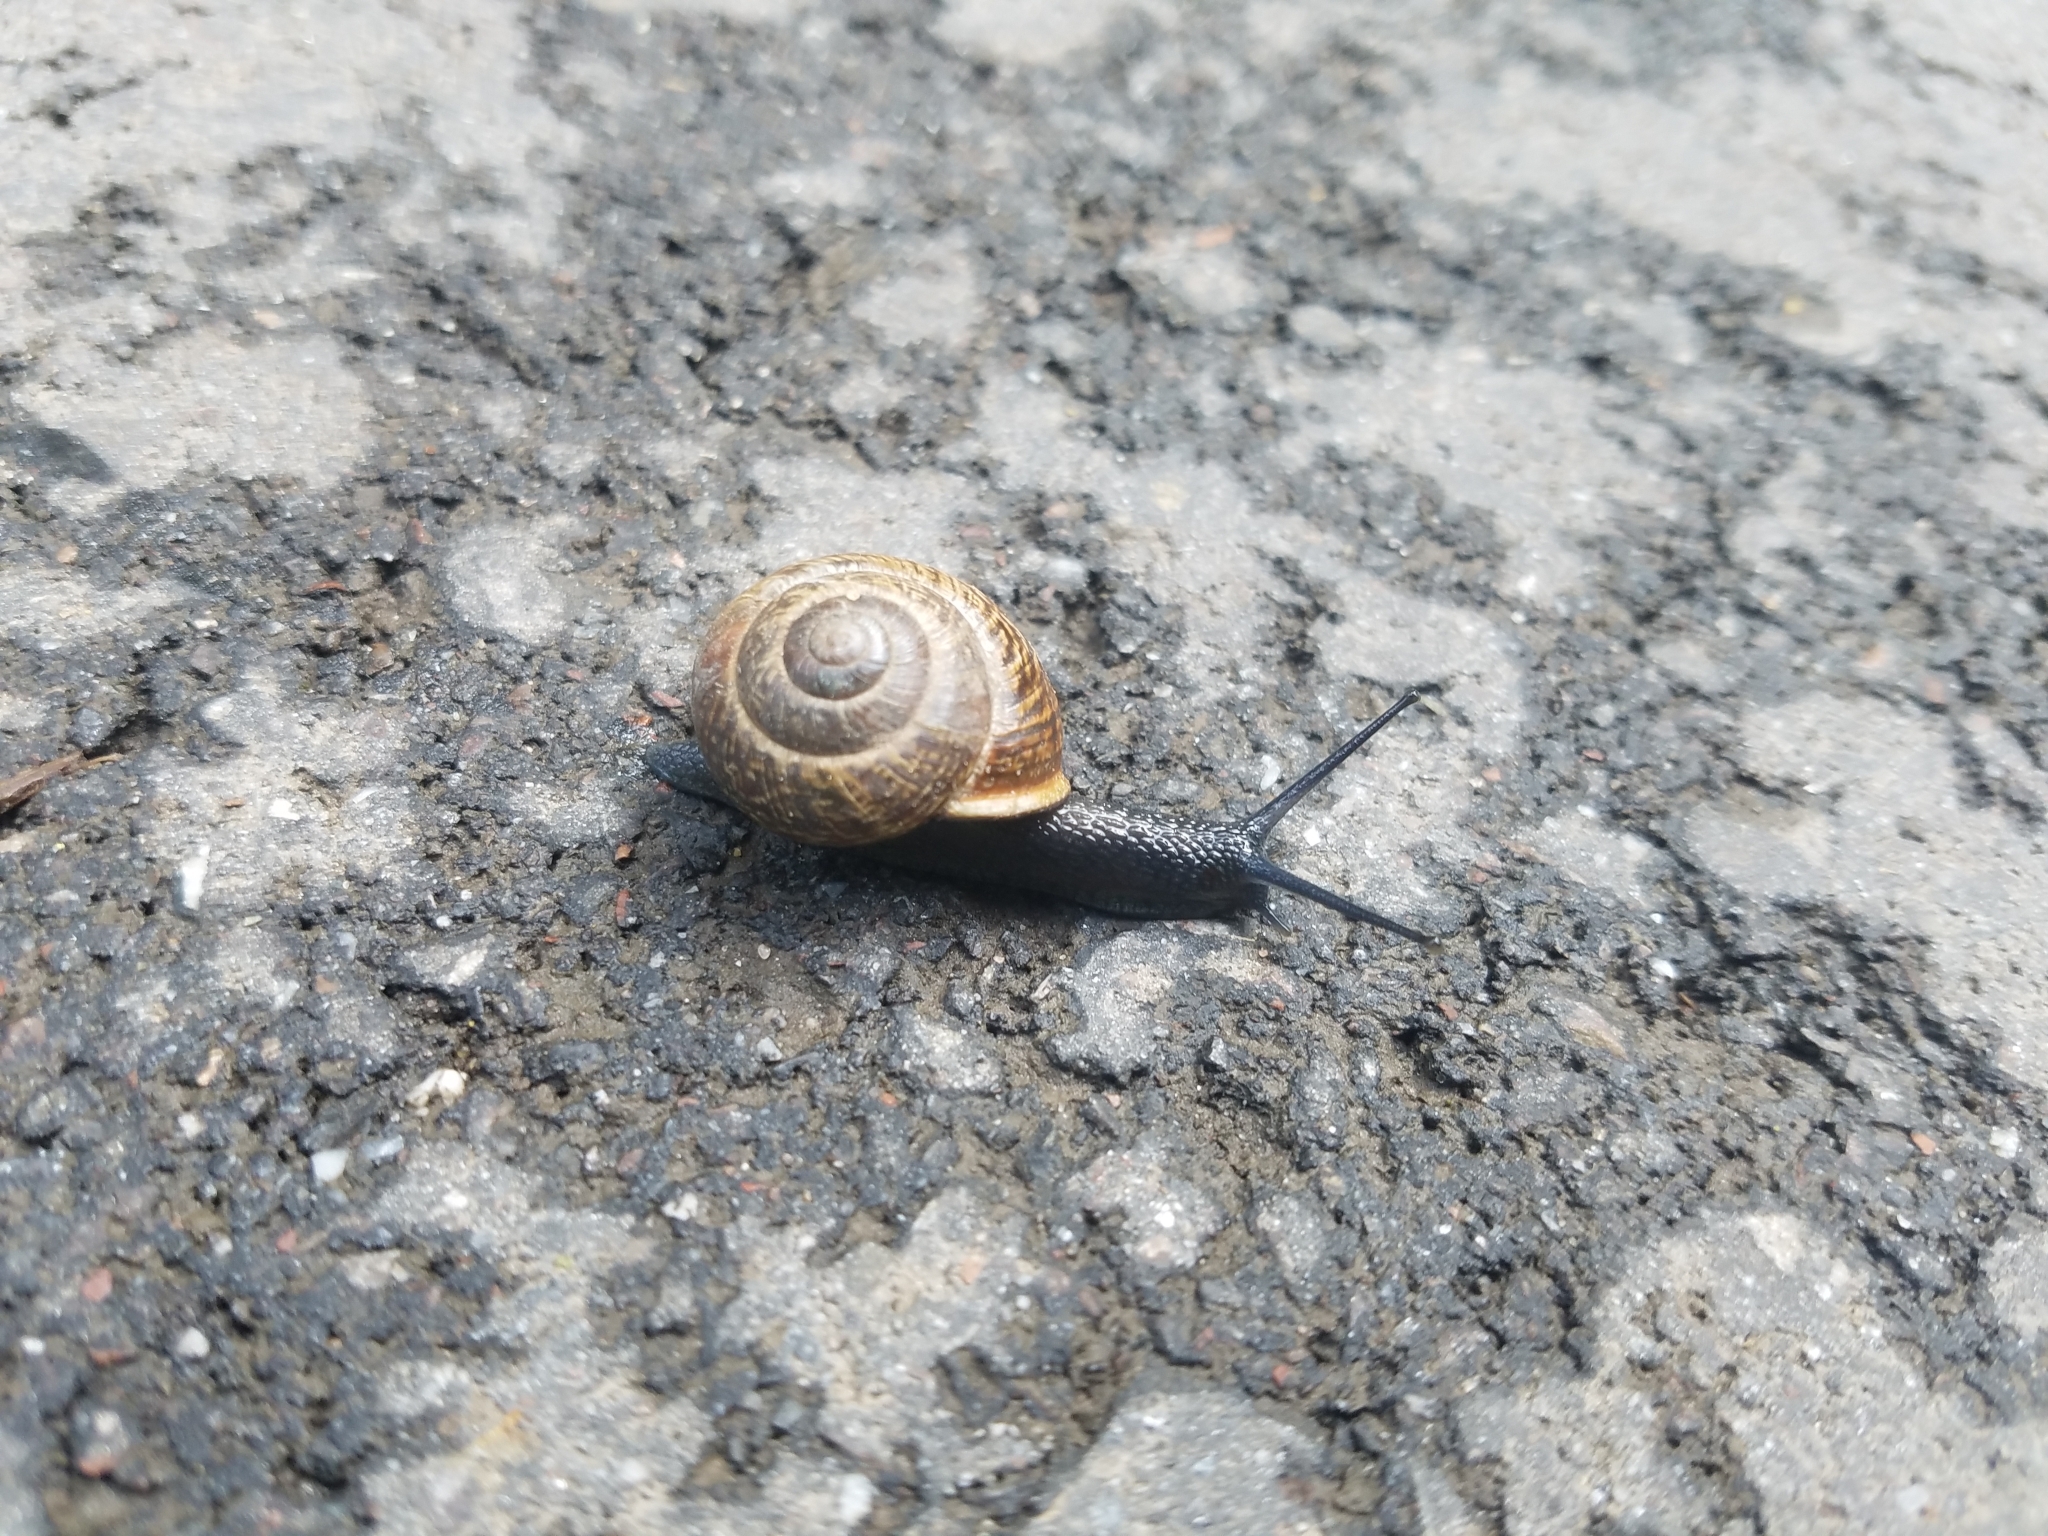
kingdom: Animalia
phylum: Mollusca
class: Gastropoda
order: Stylommatophora
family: Helicidae
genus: Arianta
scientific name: Arianta arbustorum
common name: Copse snail
